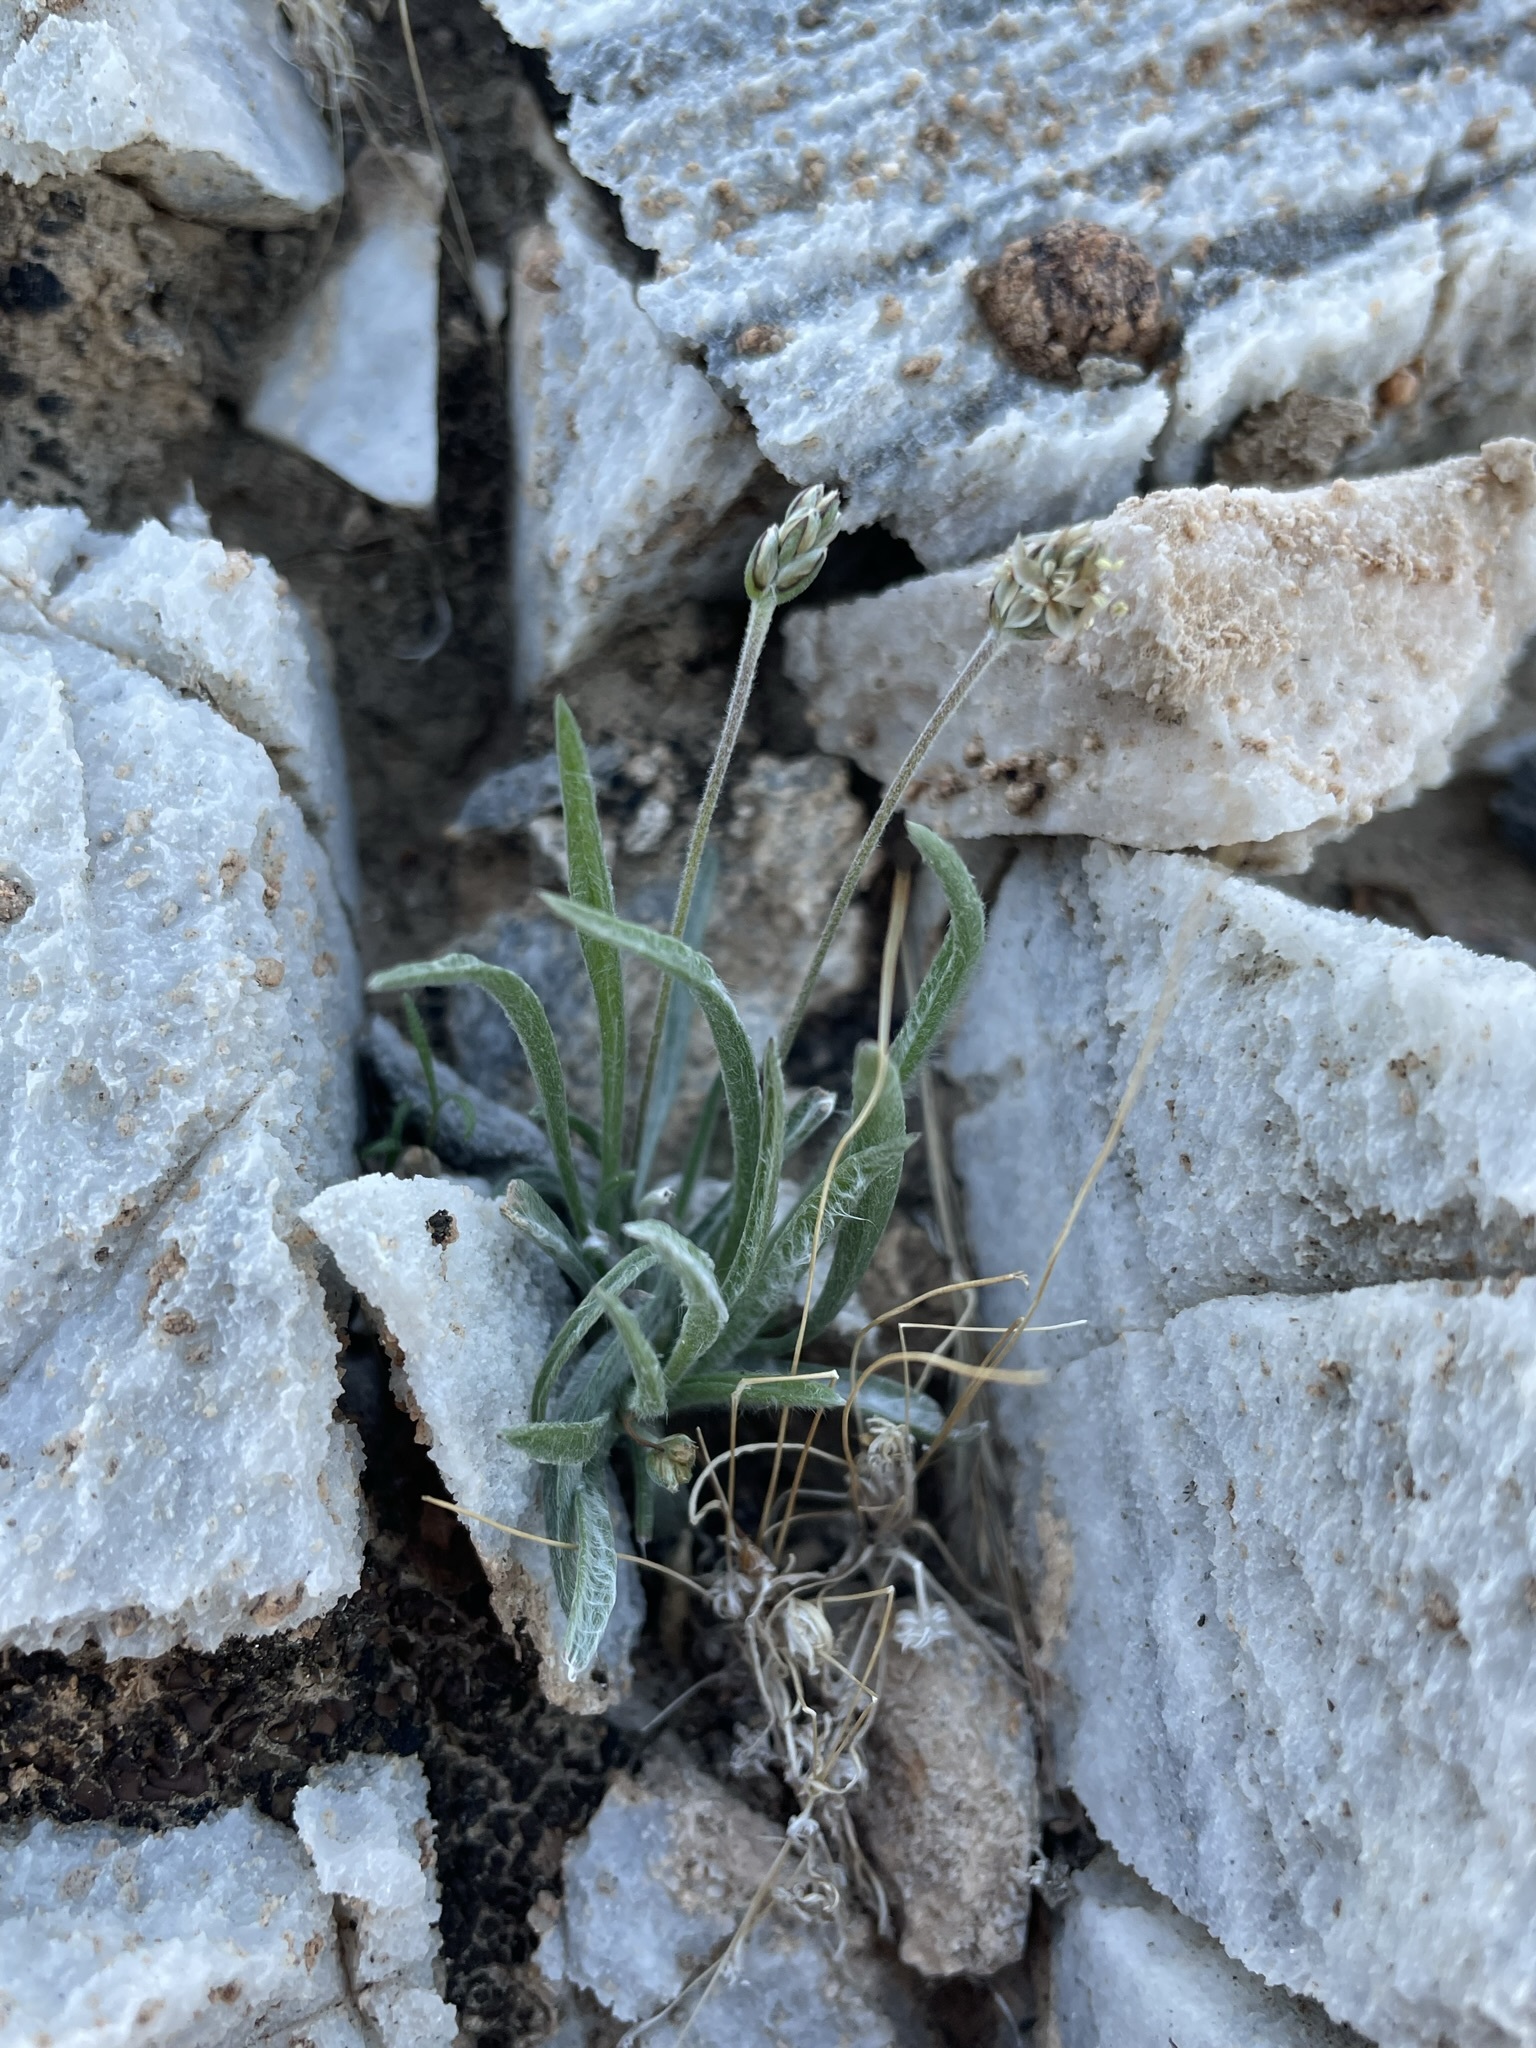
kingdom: Plantae
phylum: Tracheophyta
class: Magnoliopsida
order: Lamiales
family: Plantaginaceae
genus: Plantago
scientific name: Plantago ovata
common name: Blond plantain
